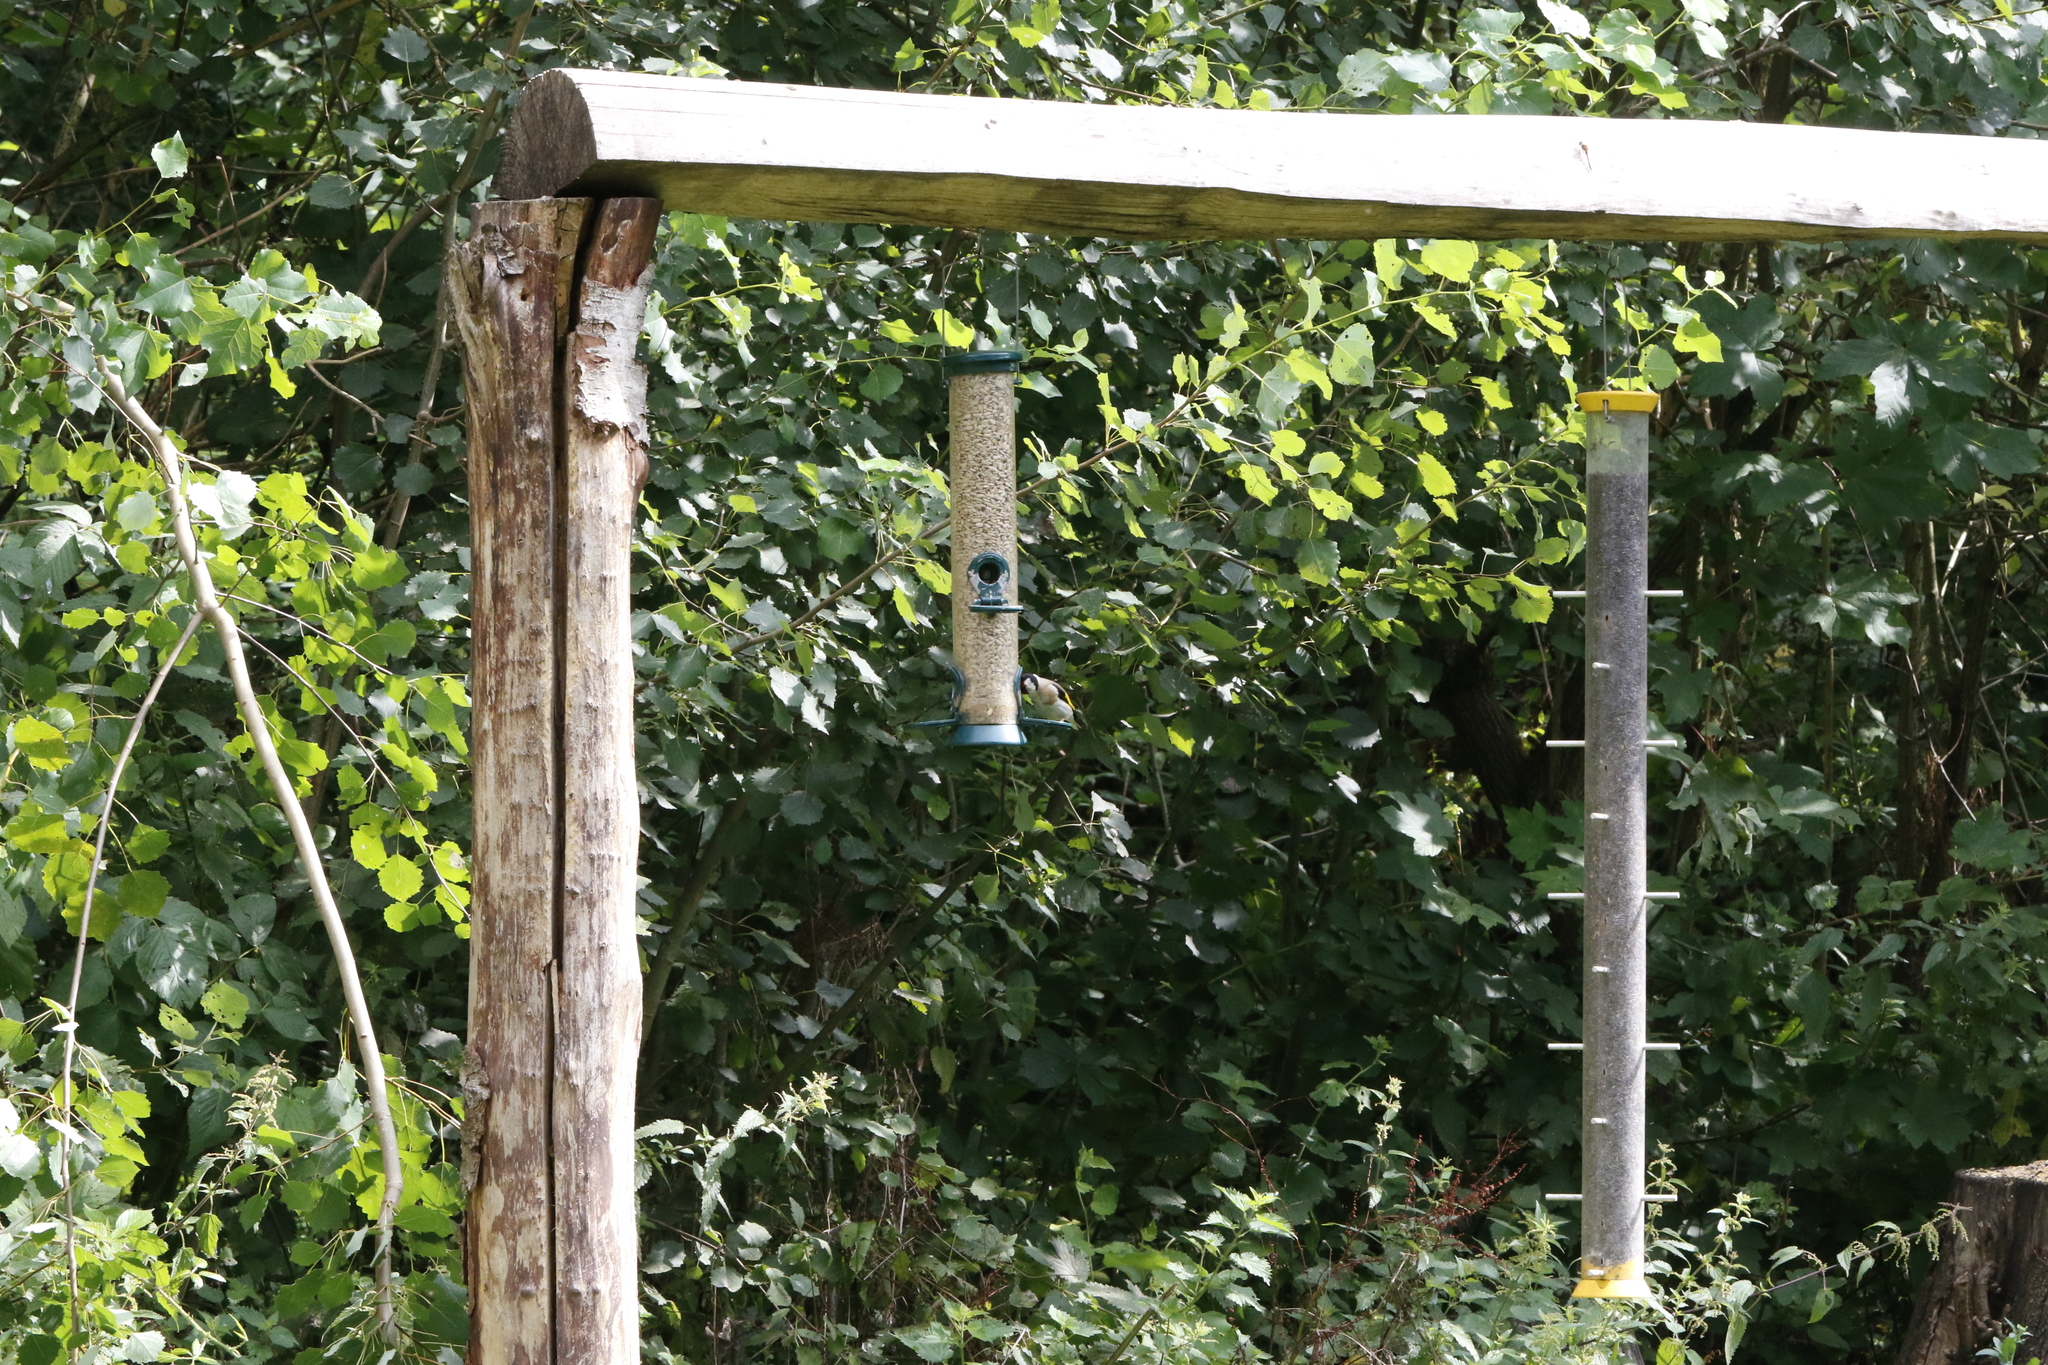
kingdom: Animalia
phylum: Chordata
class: Aves
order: Passeriformes
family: Fringillidae
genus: Carduelis
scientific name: Carduelis carduelis
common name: European goldfinch
